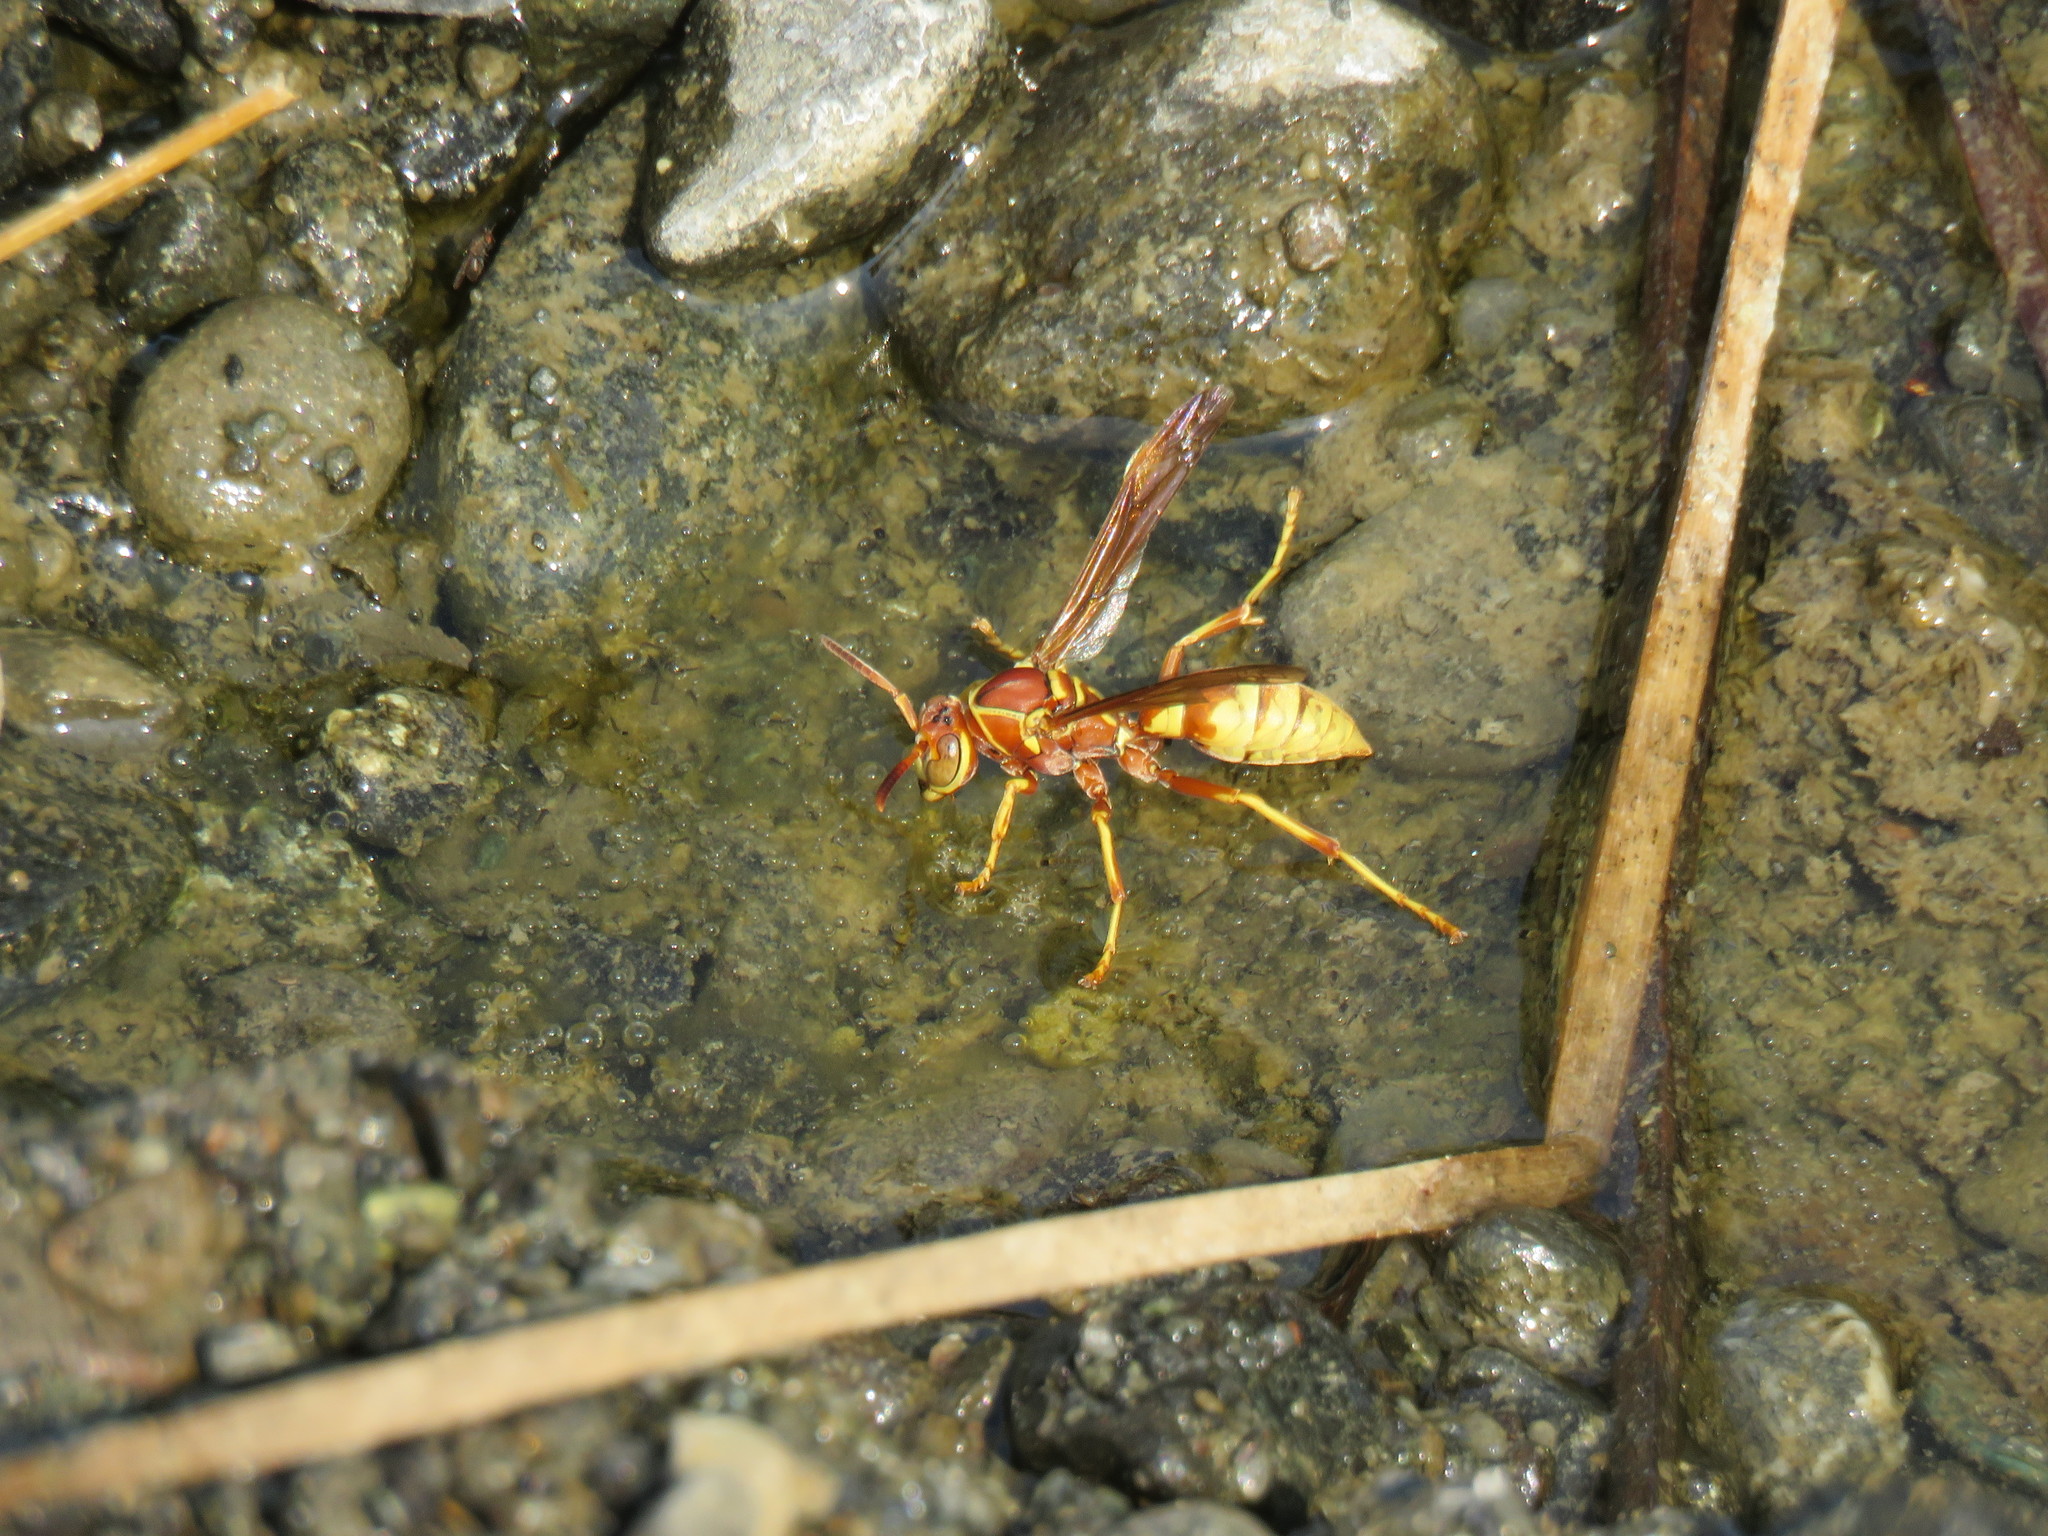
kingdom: Animalia
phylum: Arthropoda
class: Insecta
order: Hymenoptera
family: Eumenidae
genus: Polistes
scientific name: Polistes dorsalis
